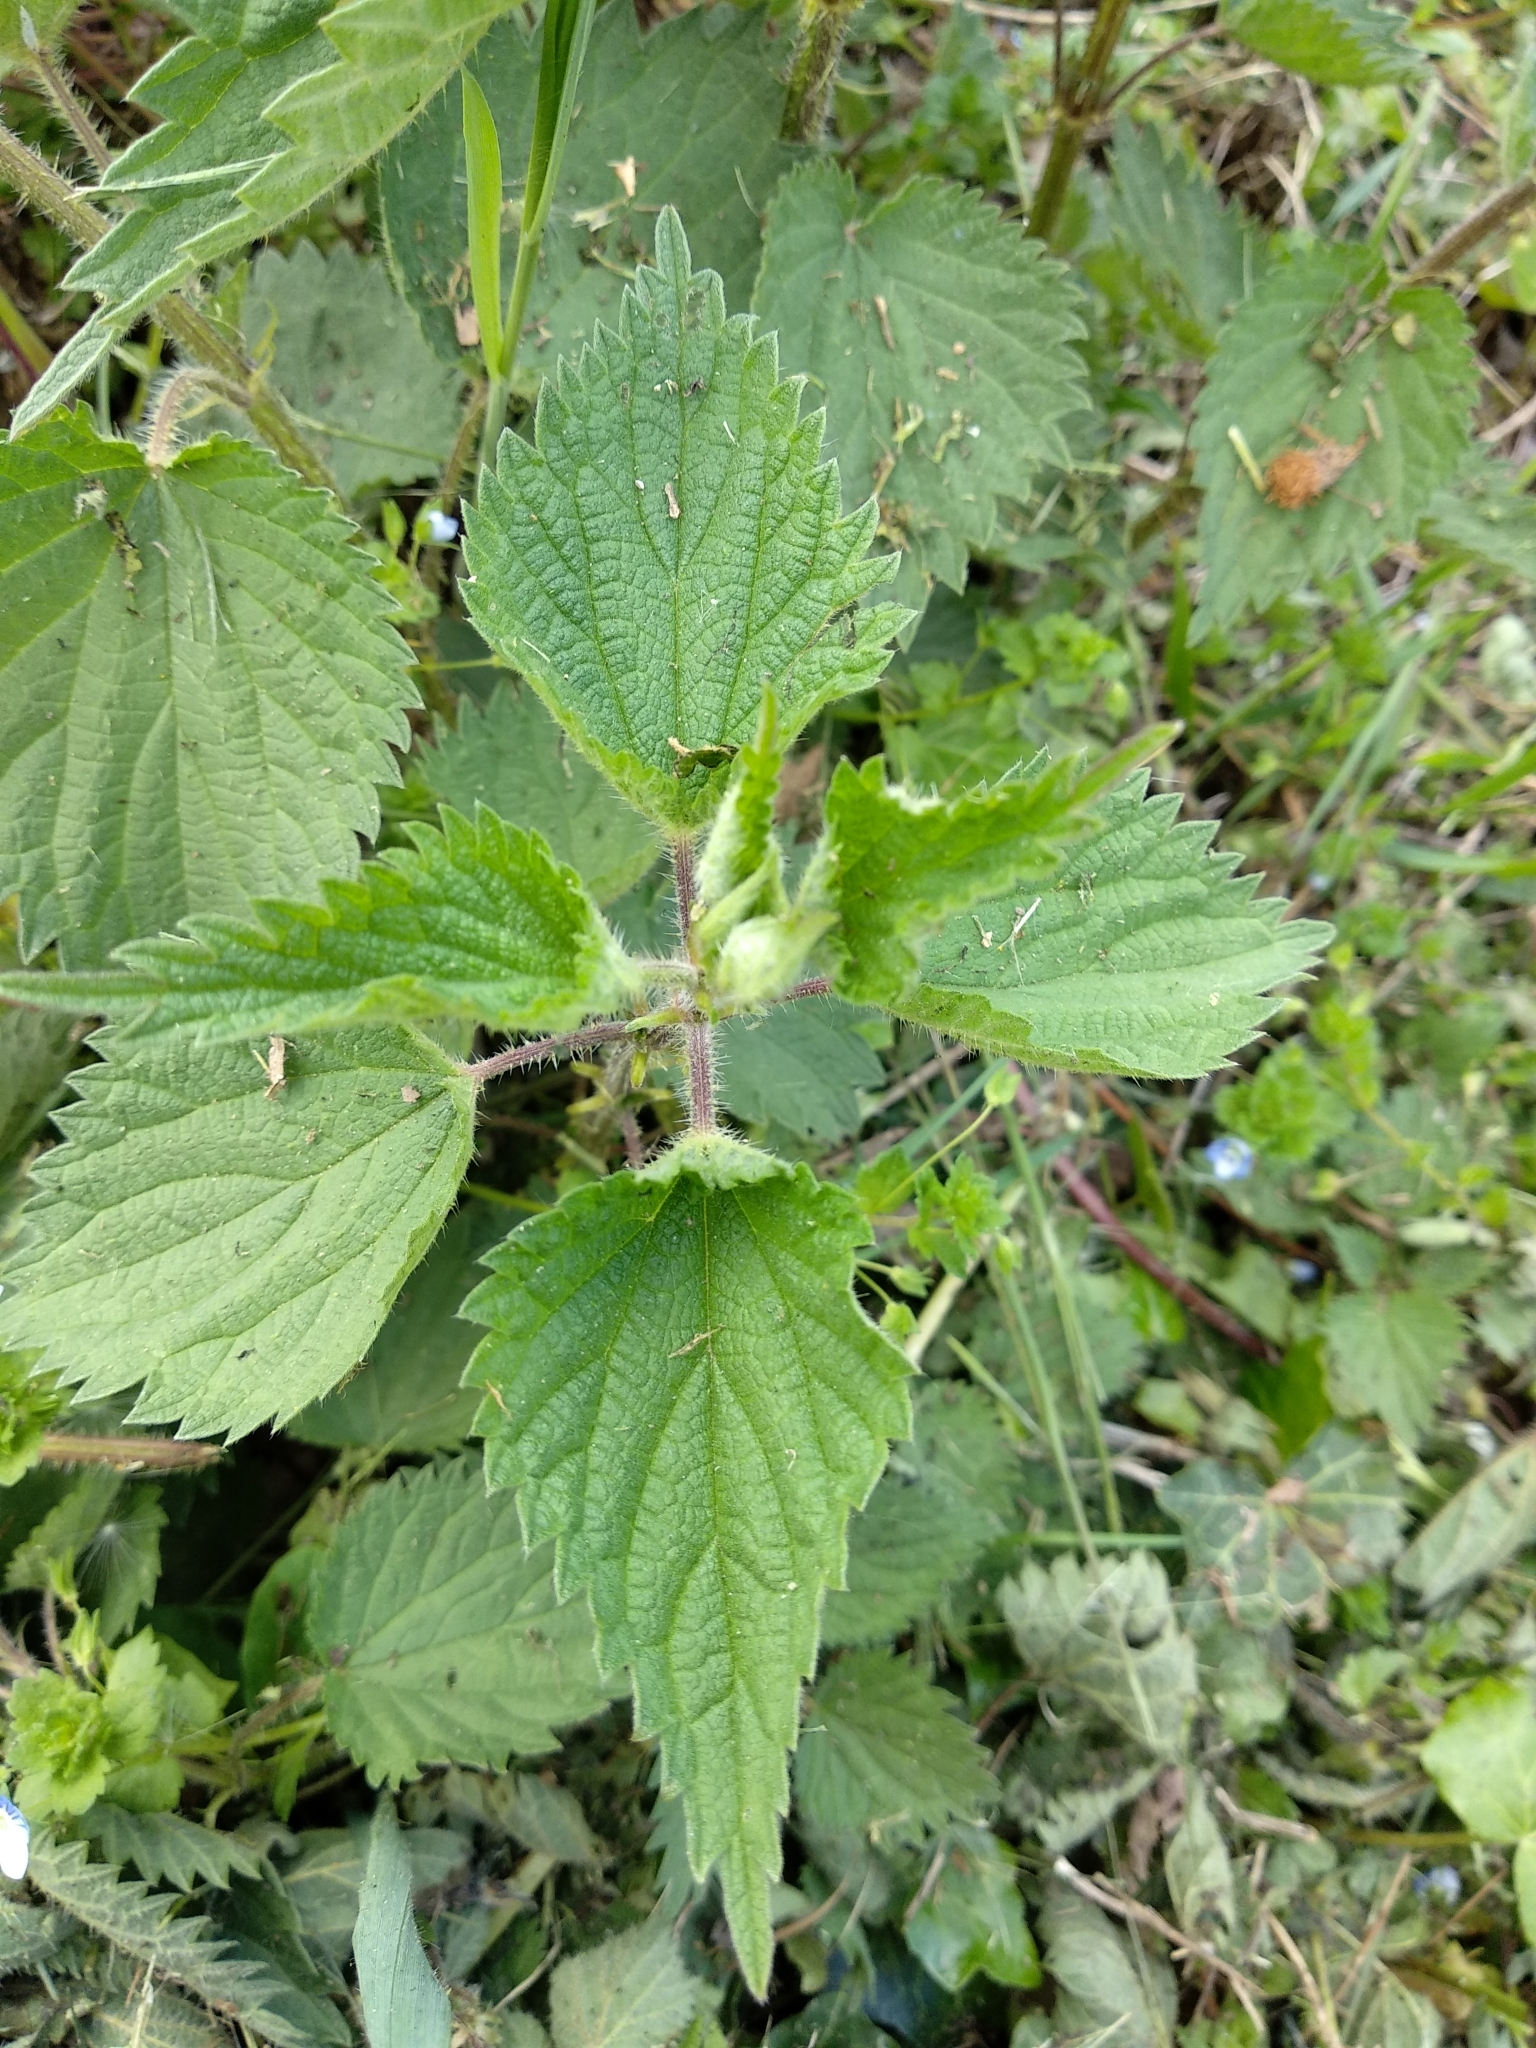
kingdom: Plantae
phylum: Tracheophyta
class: Magnoliopsida
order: Rosales
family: Urticaceae
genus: Urtica
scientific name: Urtica dioica
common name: Common nettle
